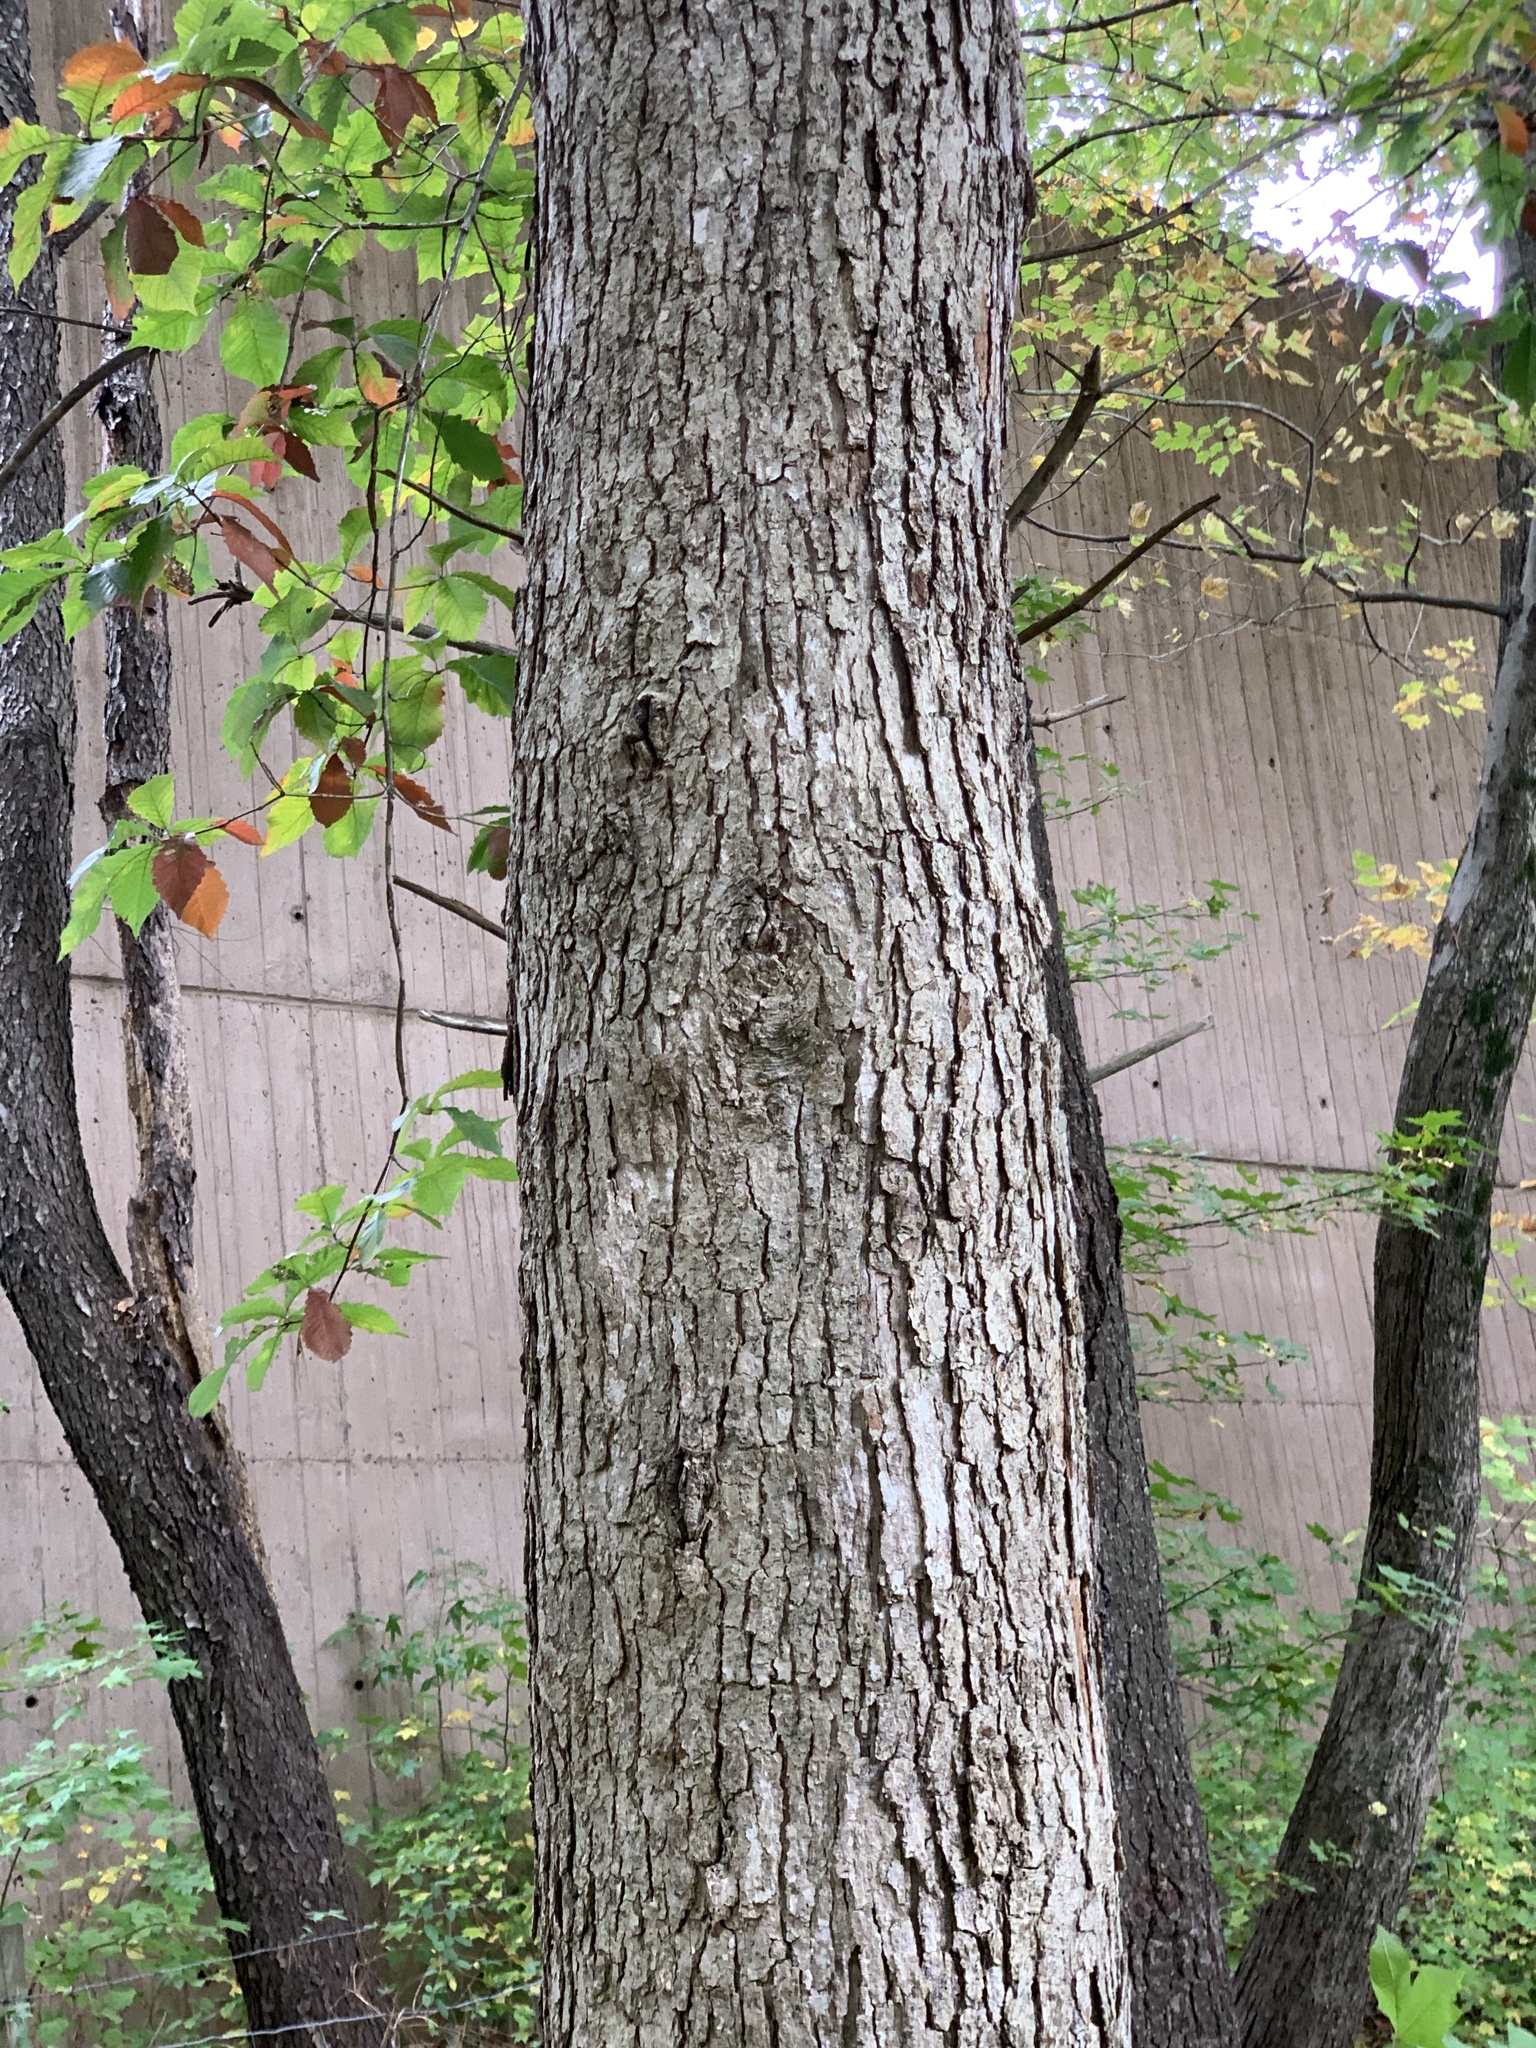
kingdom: Plantae
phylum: Tracheophyta
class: Magnoliopsida
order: Fagales
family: Fagaceae
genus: Quercus
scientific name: Quercus michauxii
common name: Swamp chestnut oak
